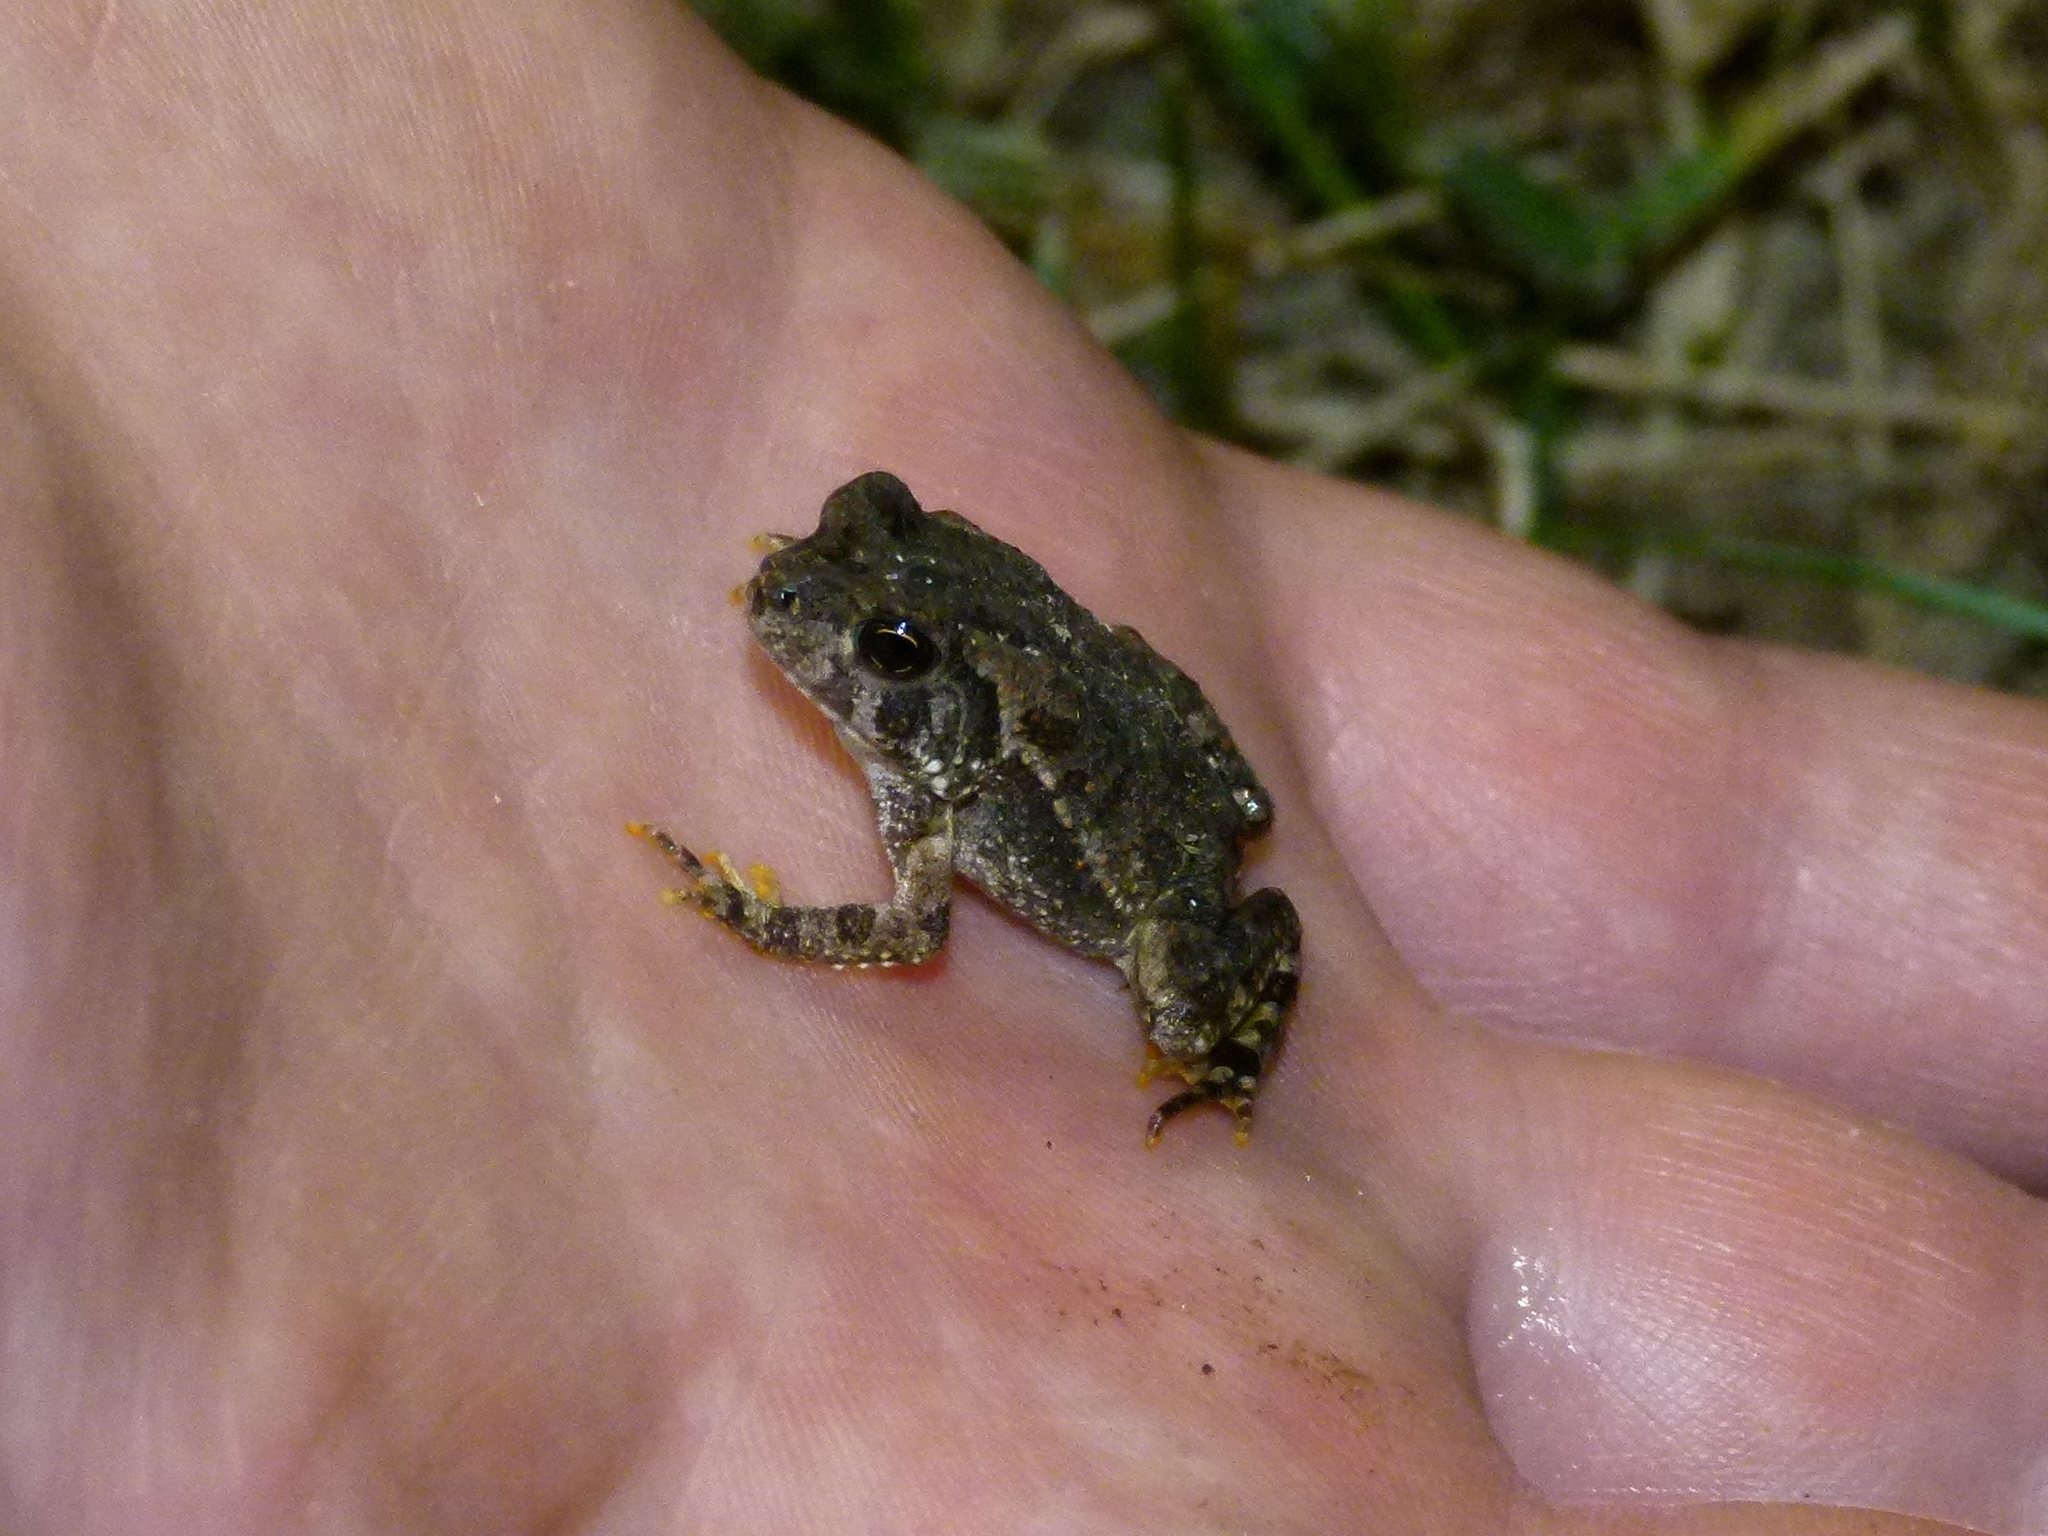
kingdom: Animalia
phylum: Chordata
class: Amphibia
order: Anura
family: Bufonidae
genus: Anaxyrus
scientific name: Anaxyrus fowleri
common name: Fowler's toad
